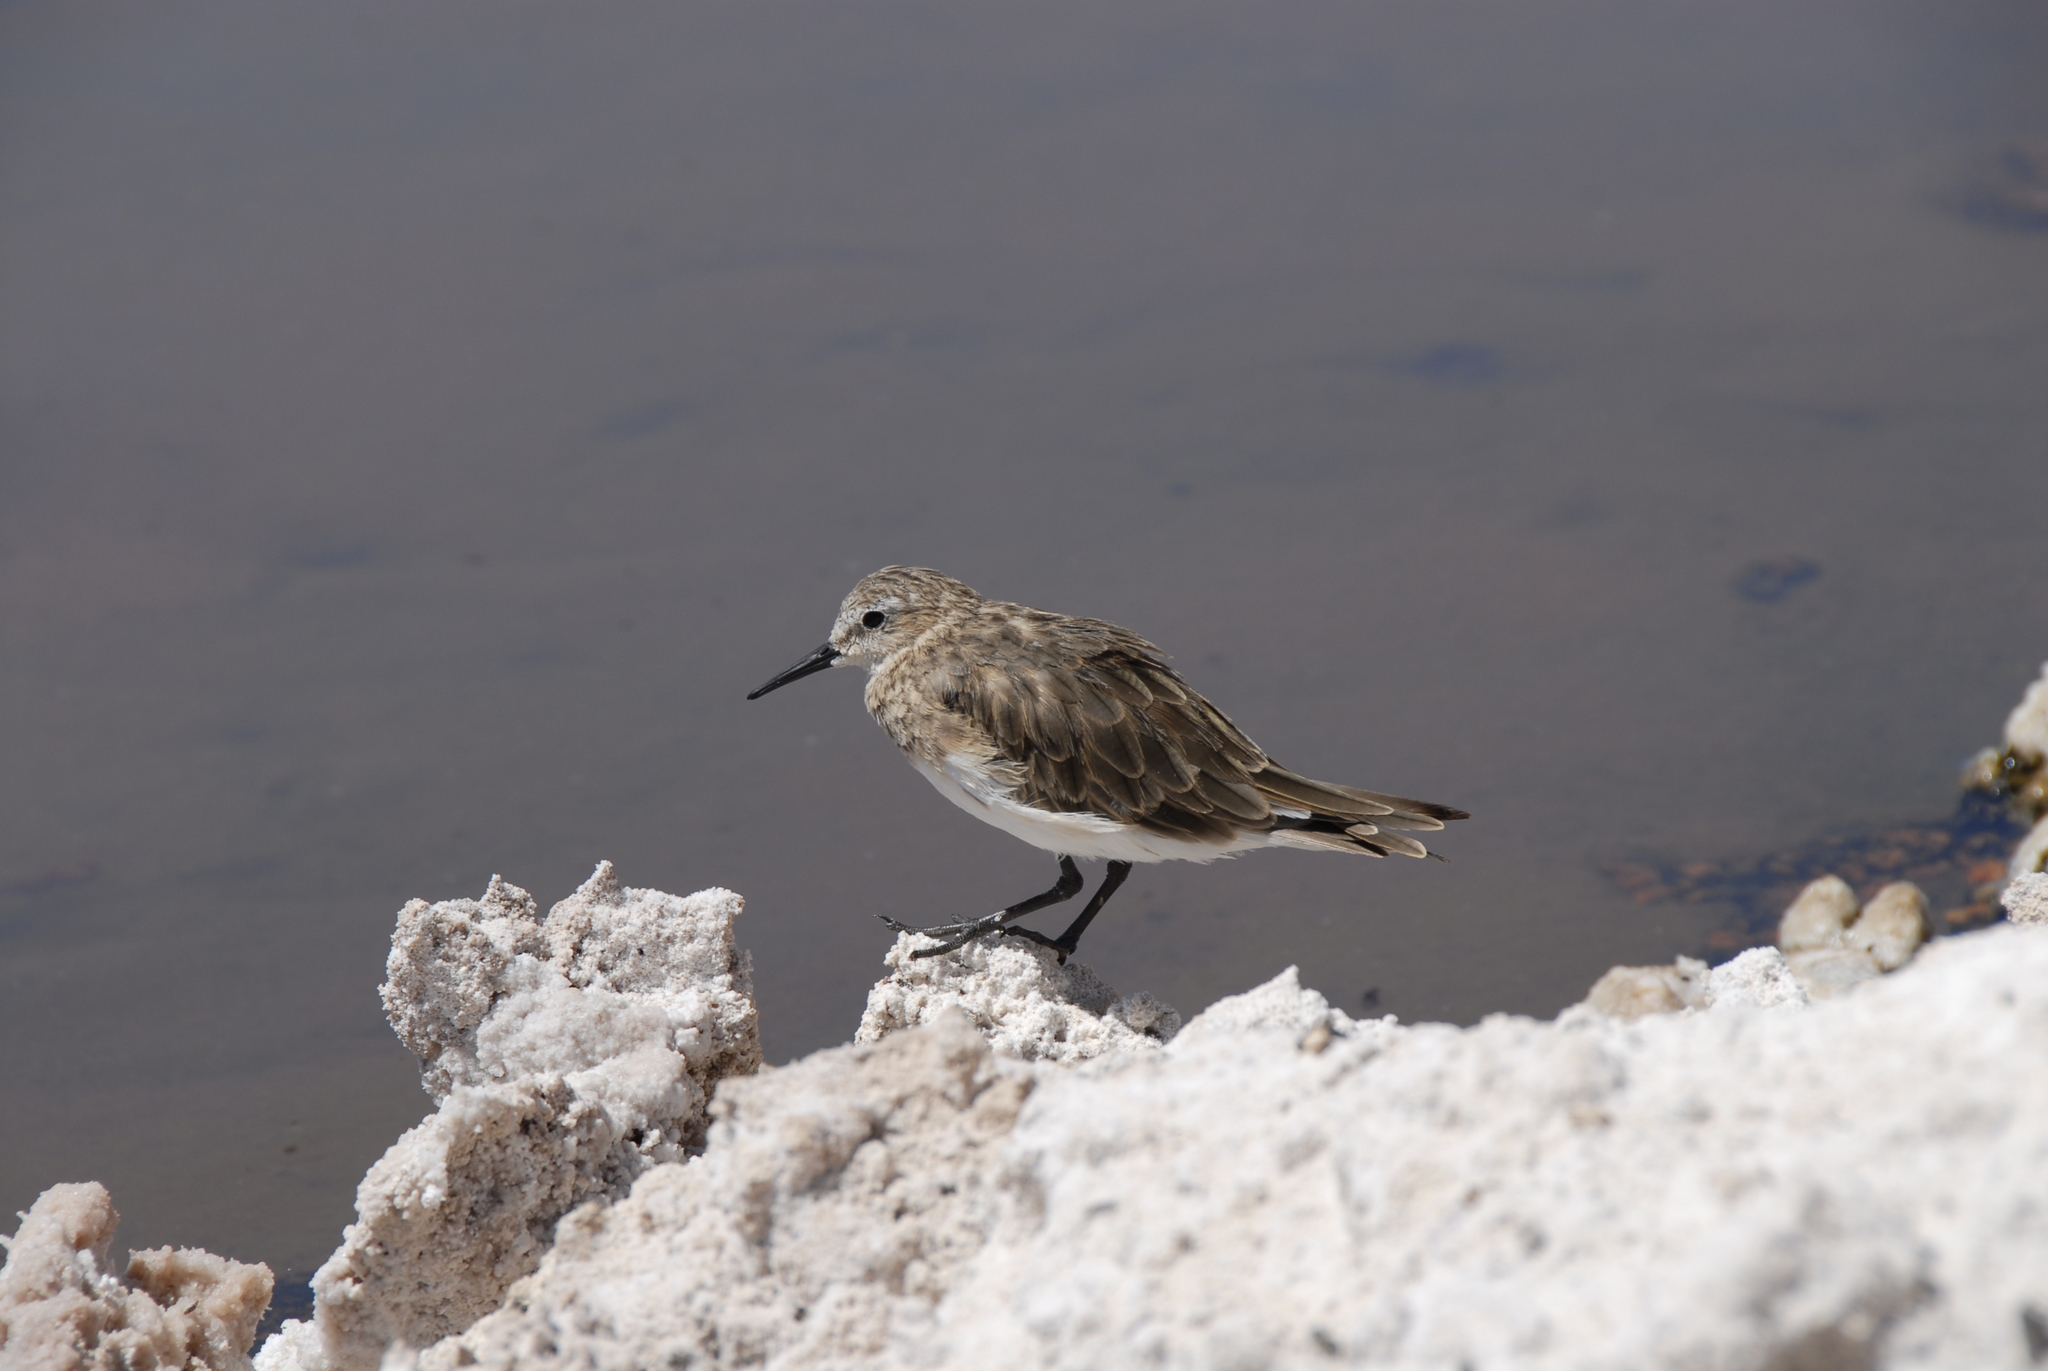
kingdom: Animalia
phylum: Chordata
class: Aves
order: Charadriiformes
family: Scolopacidae
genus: Calidris
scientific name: Calidris bairdii
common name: Baird's sandpiper
